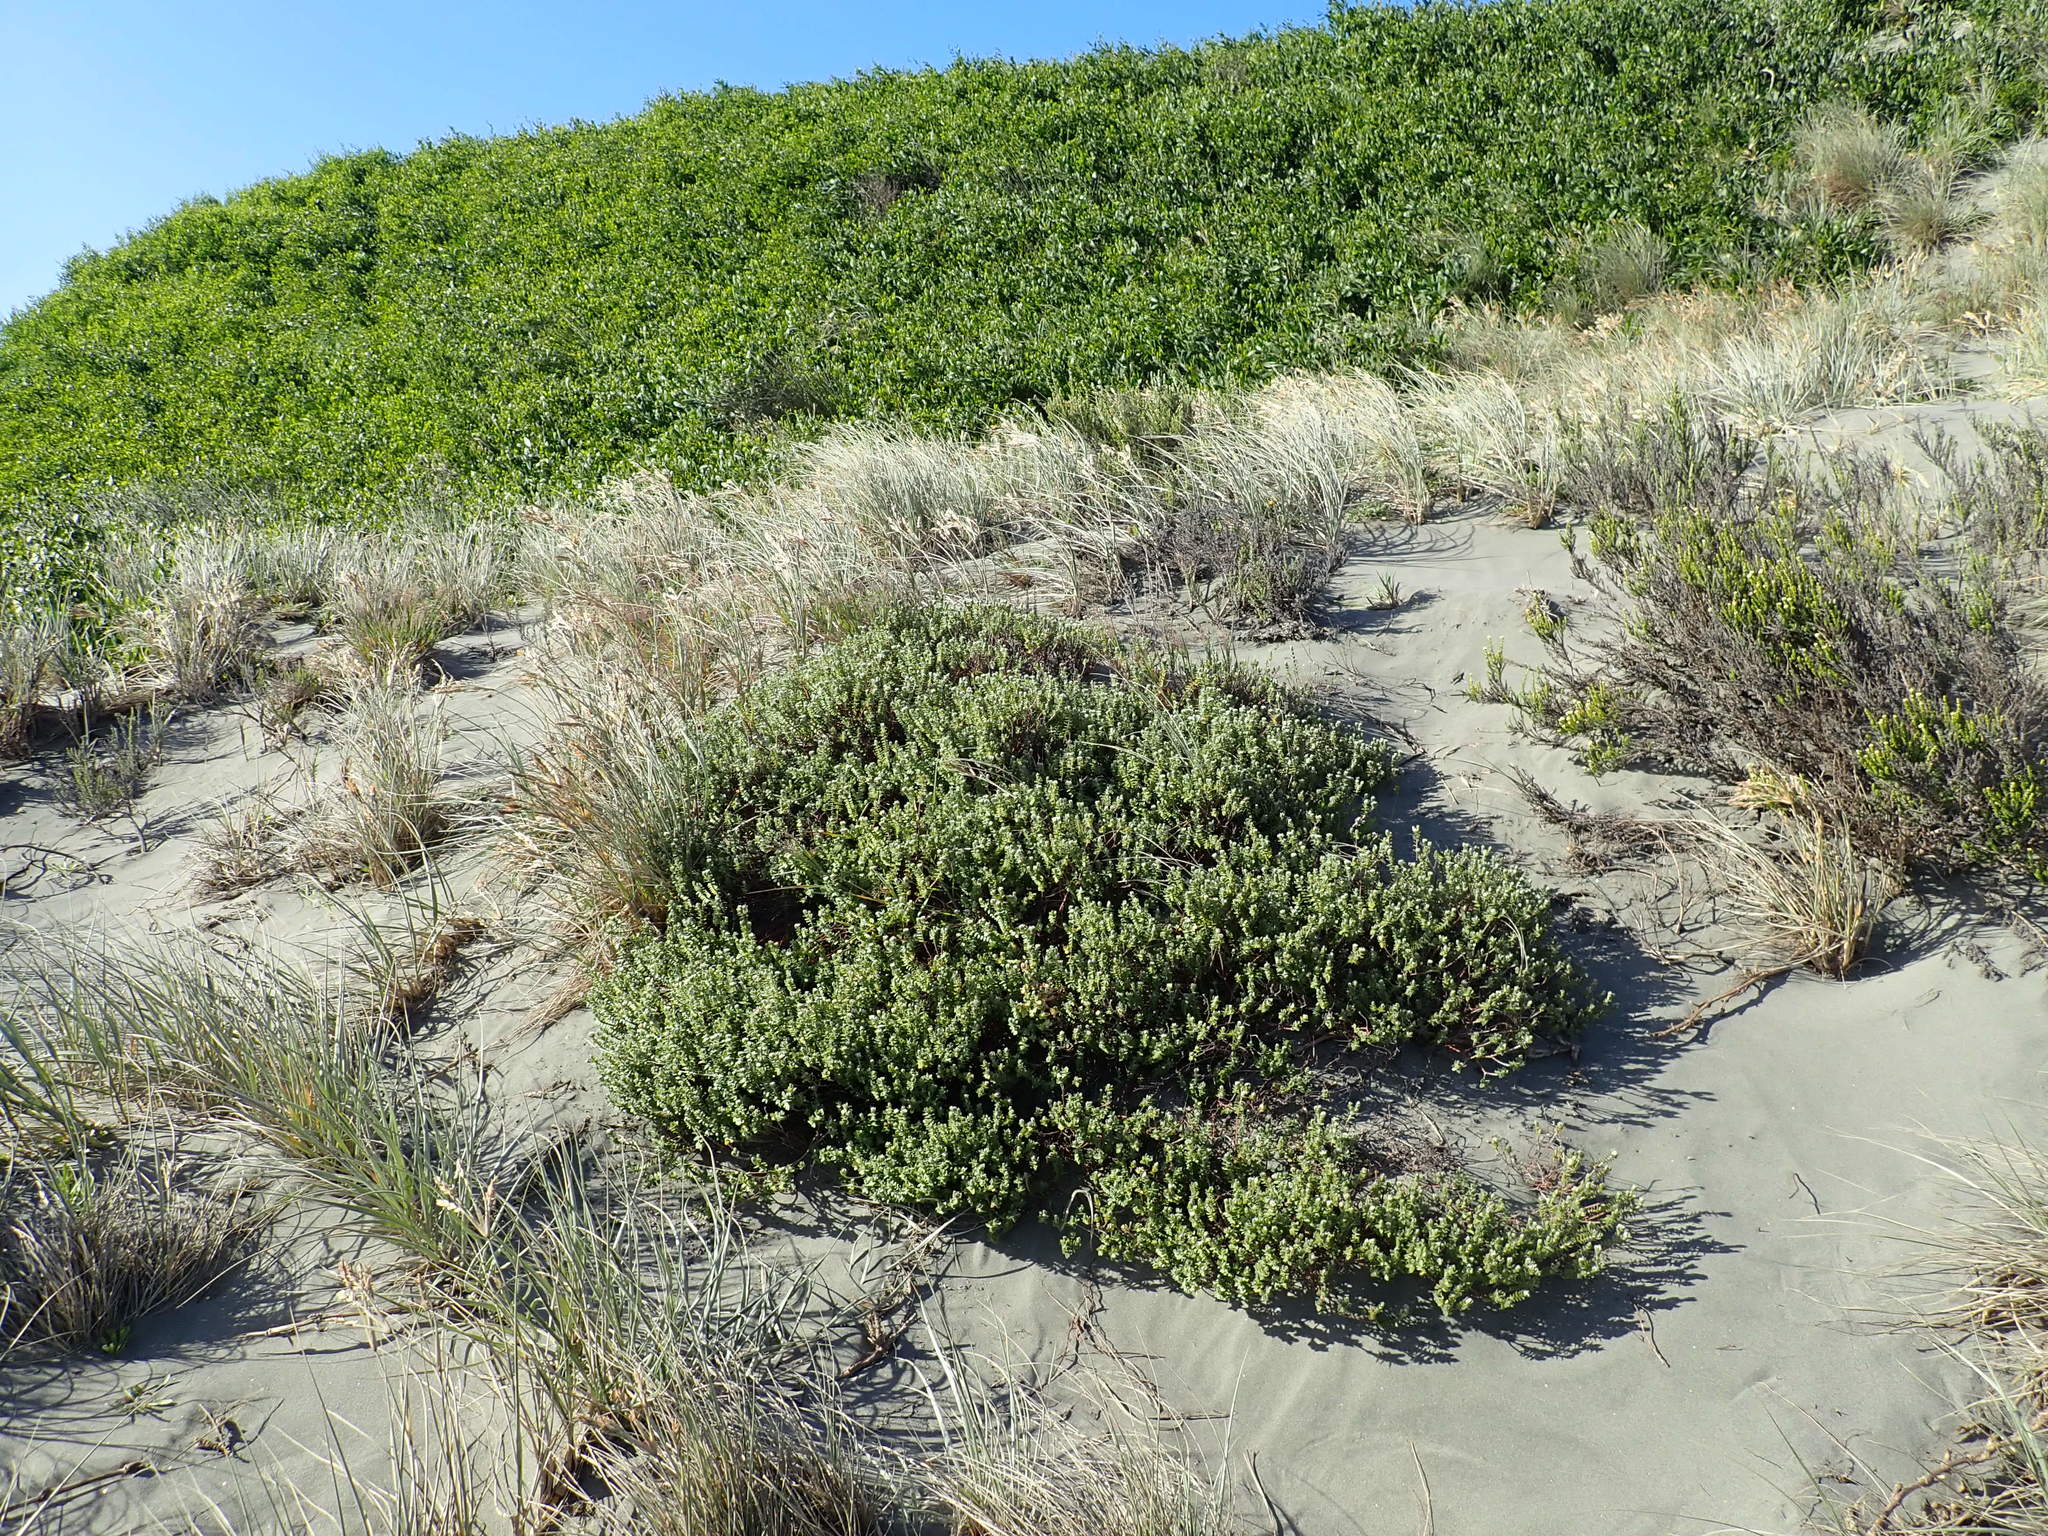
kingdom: Plantae
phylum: Tracheophyta
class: Magnoliopsida
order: Malvales
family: Thymelaeaceae
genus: Pimelea
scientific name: Pimelea villosa
